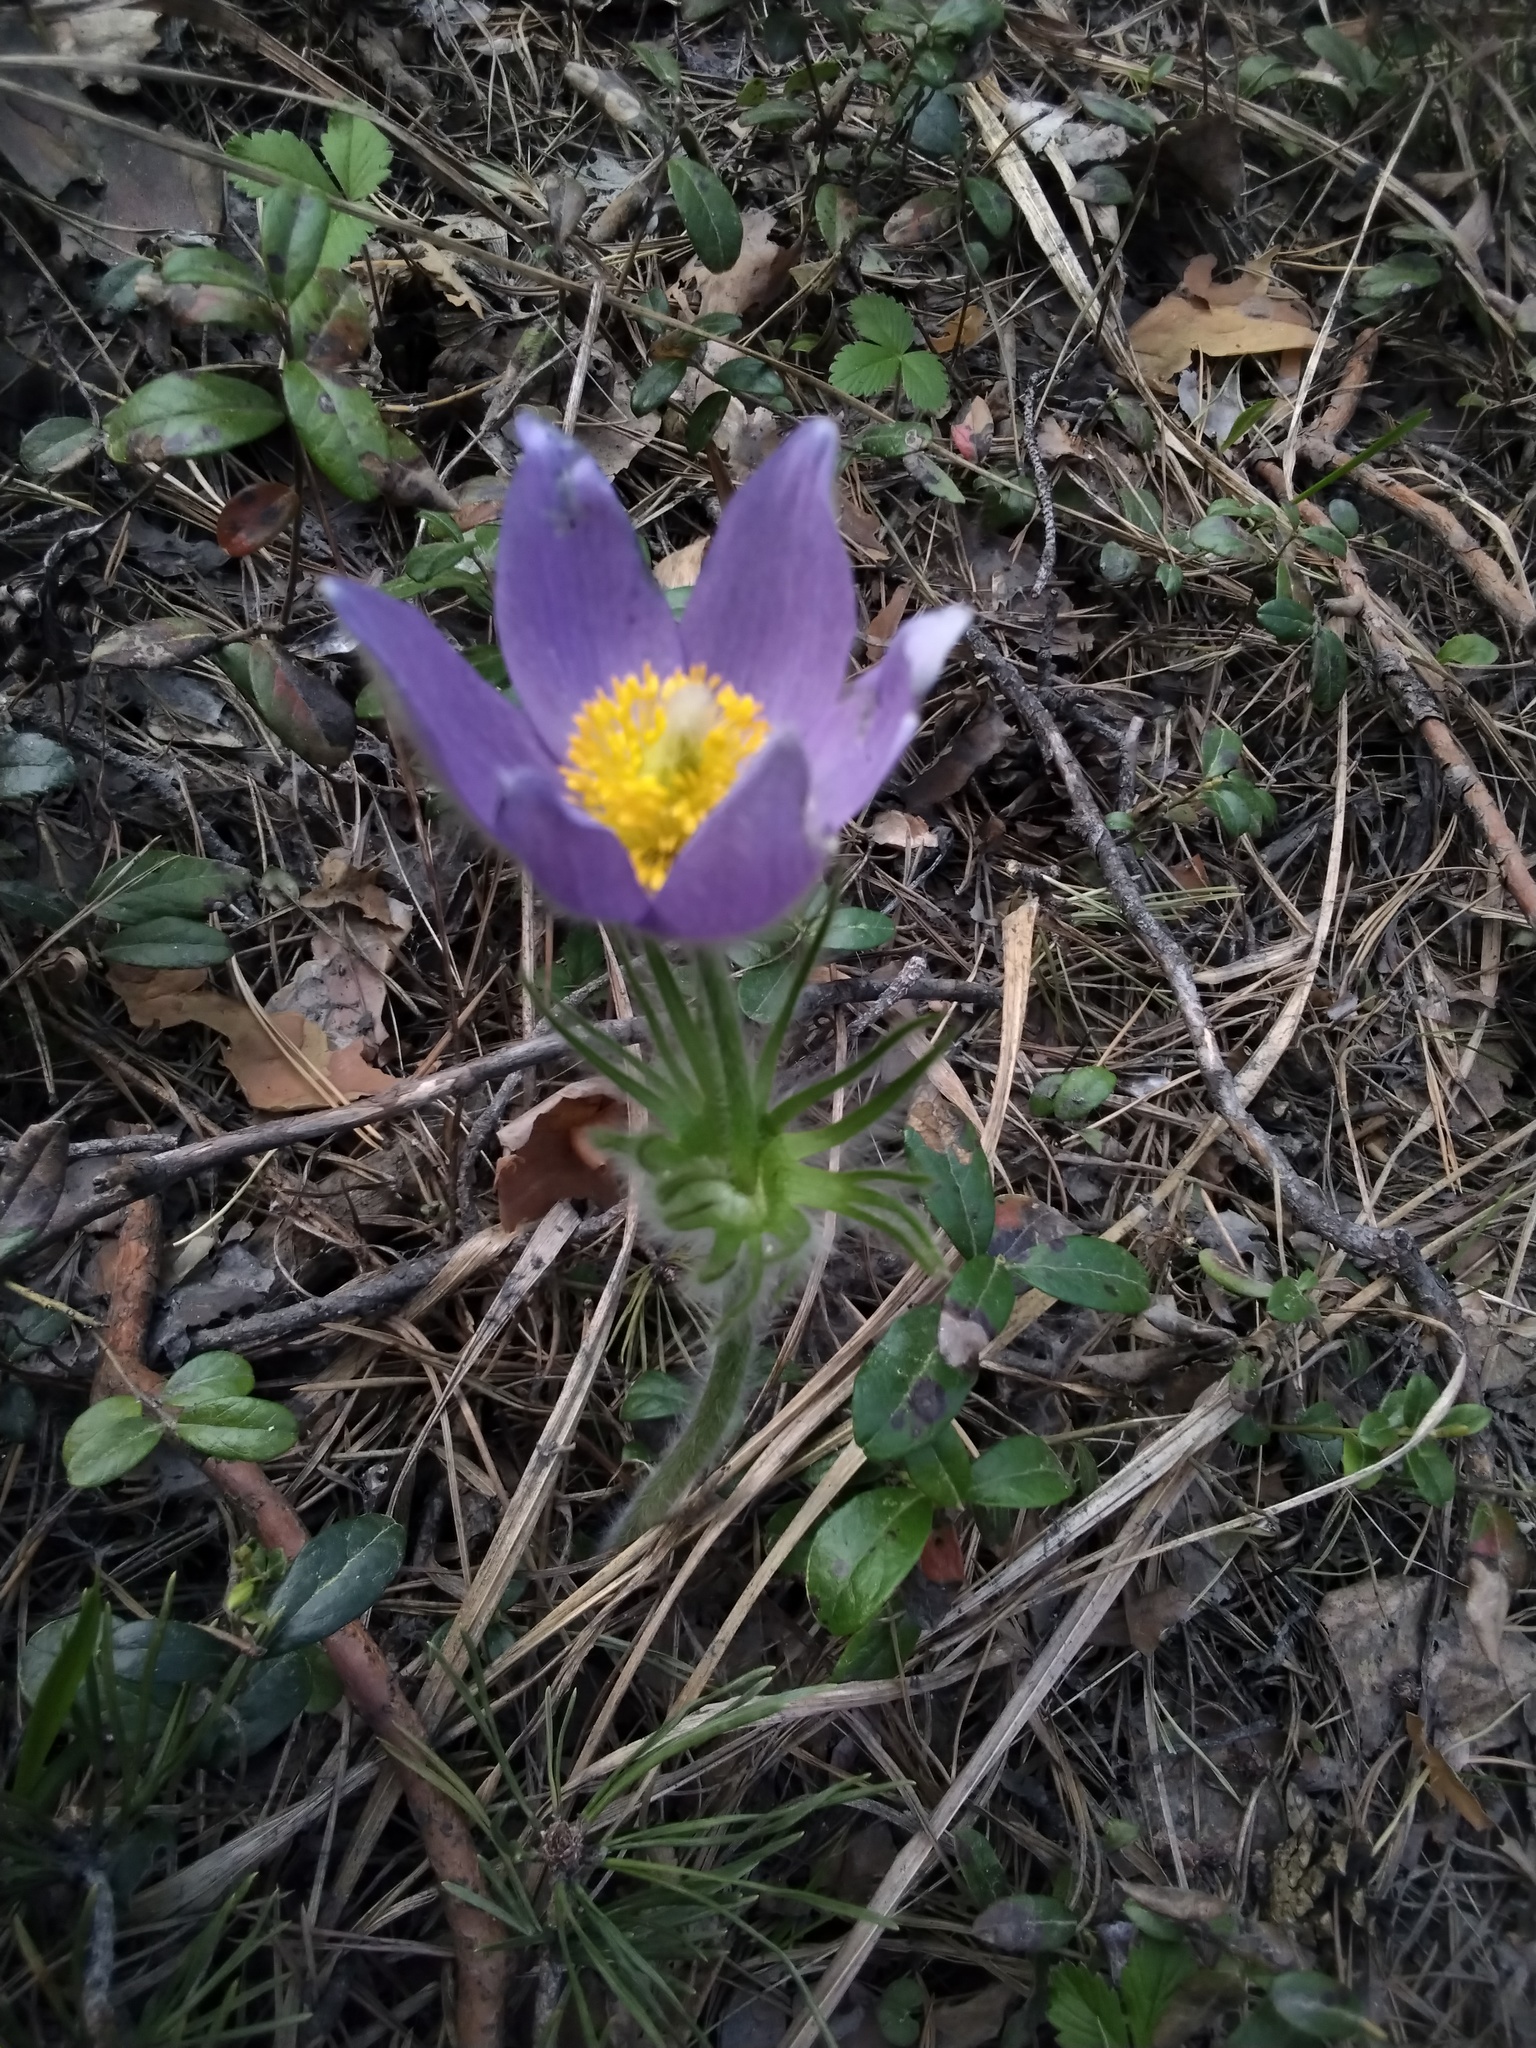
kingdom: Plantae
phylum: Tracheophyta
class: Magnoliopsida
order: Ranunculales
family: Ranunculaceae
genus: Pulsatilla
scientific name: Pulsatilla patens
